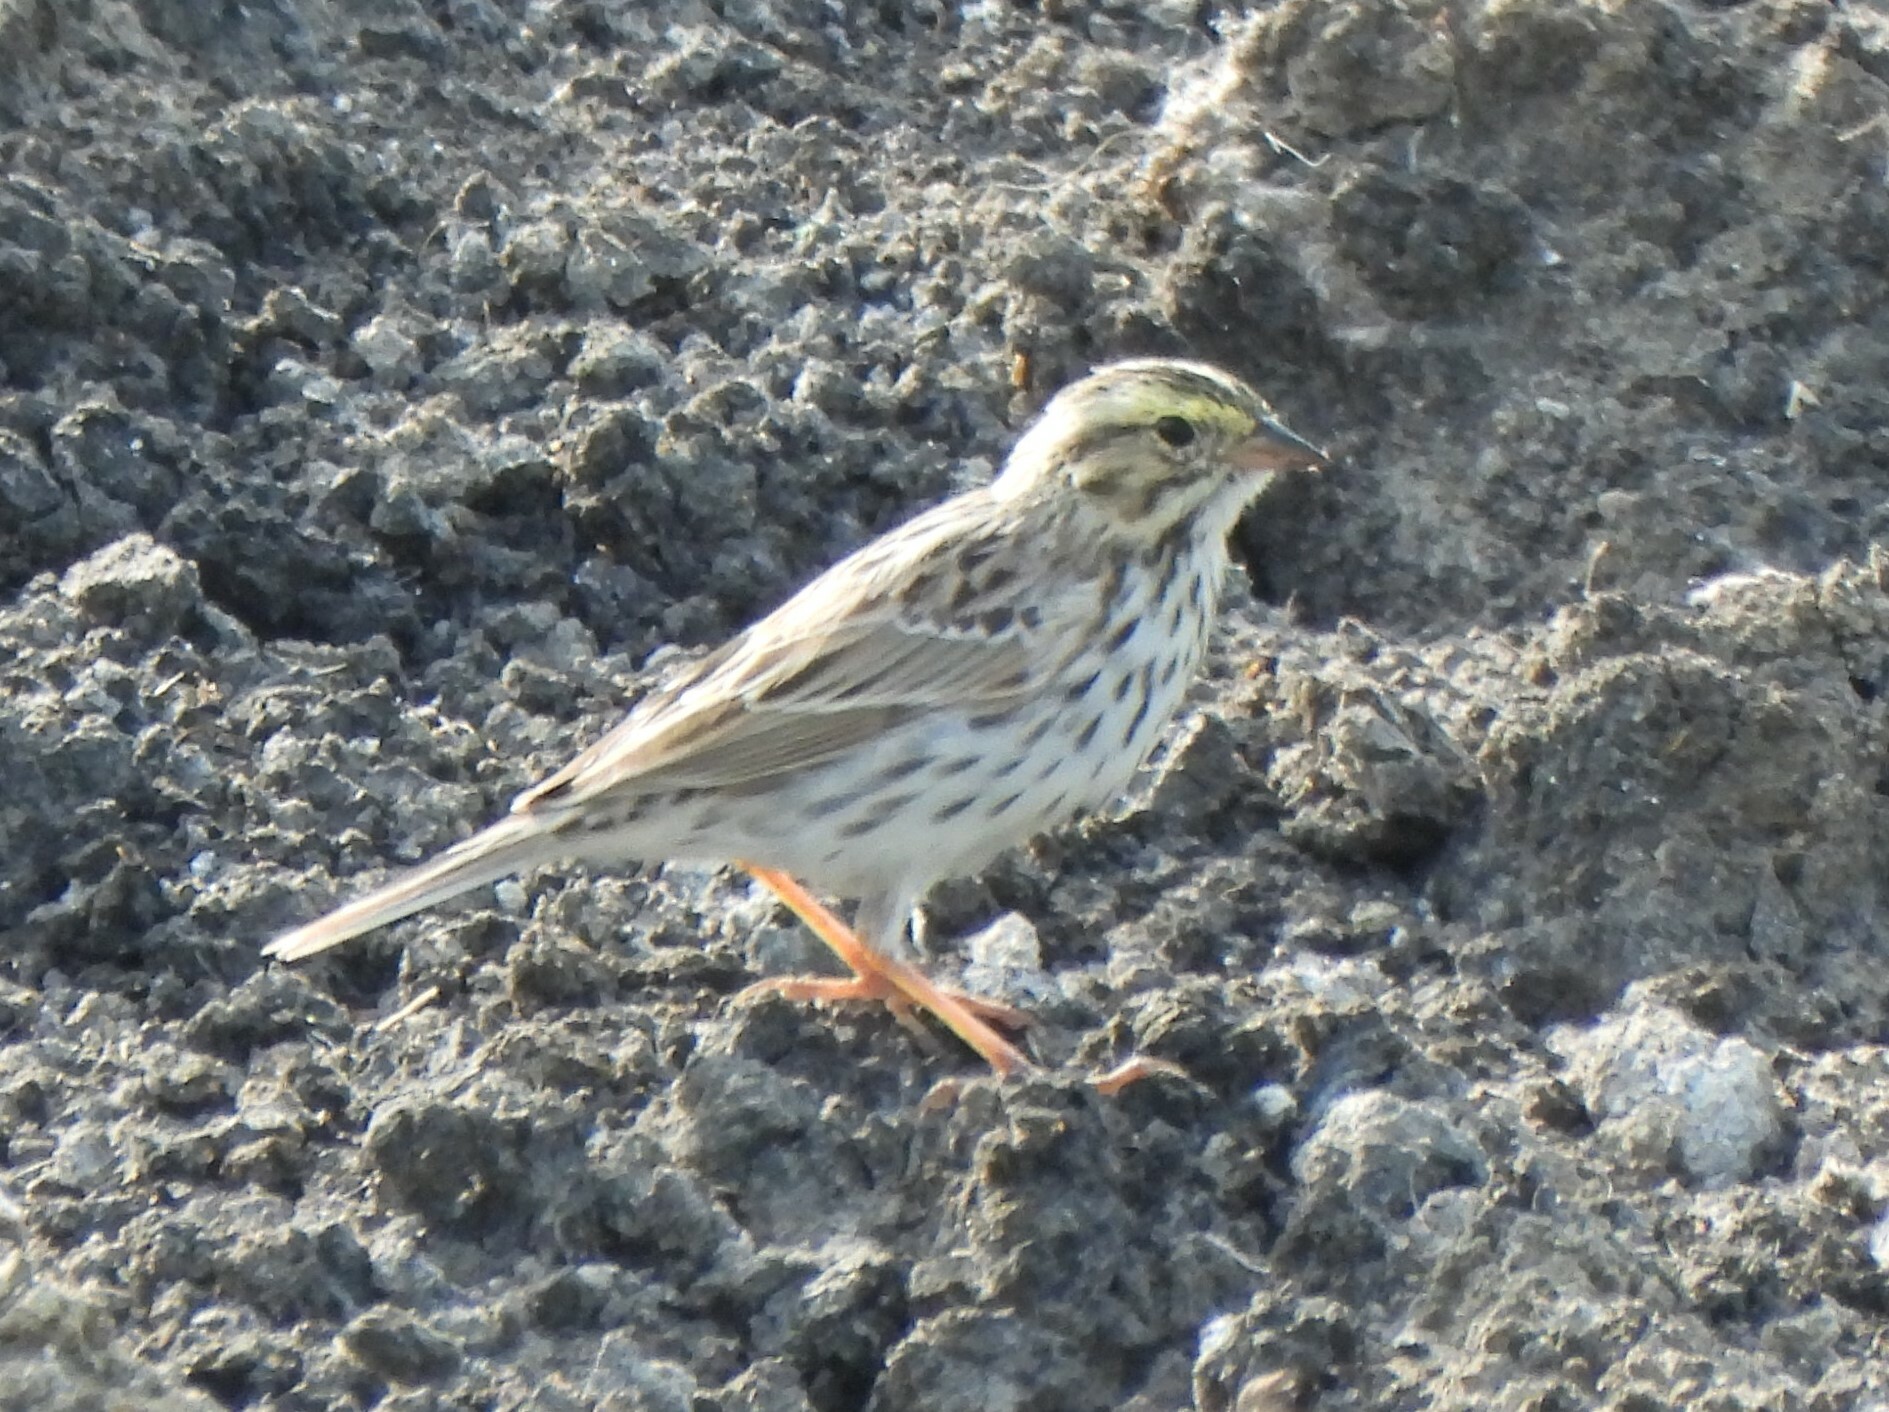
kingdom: Animalia
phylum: Chordata
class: Aves
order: Passeriformes
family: Passerellidae
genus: Passerculus
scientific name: Passerculus sandwichensis
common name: Savannah sparrow
